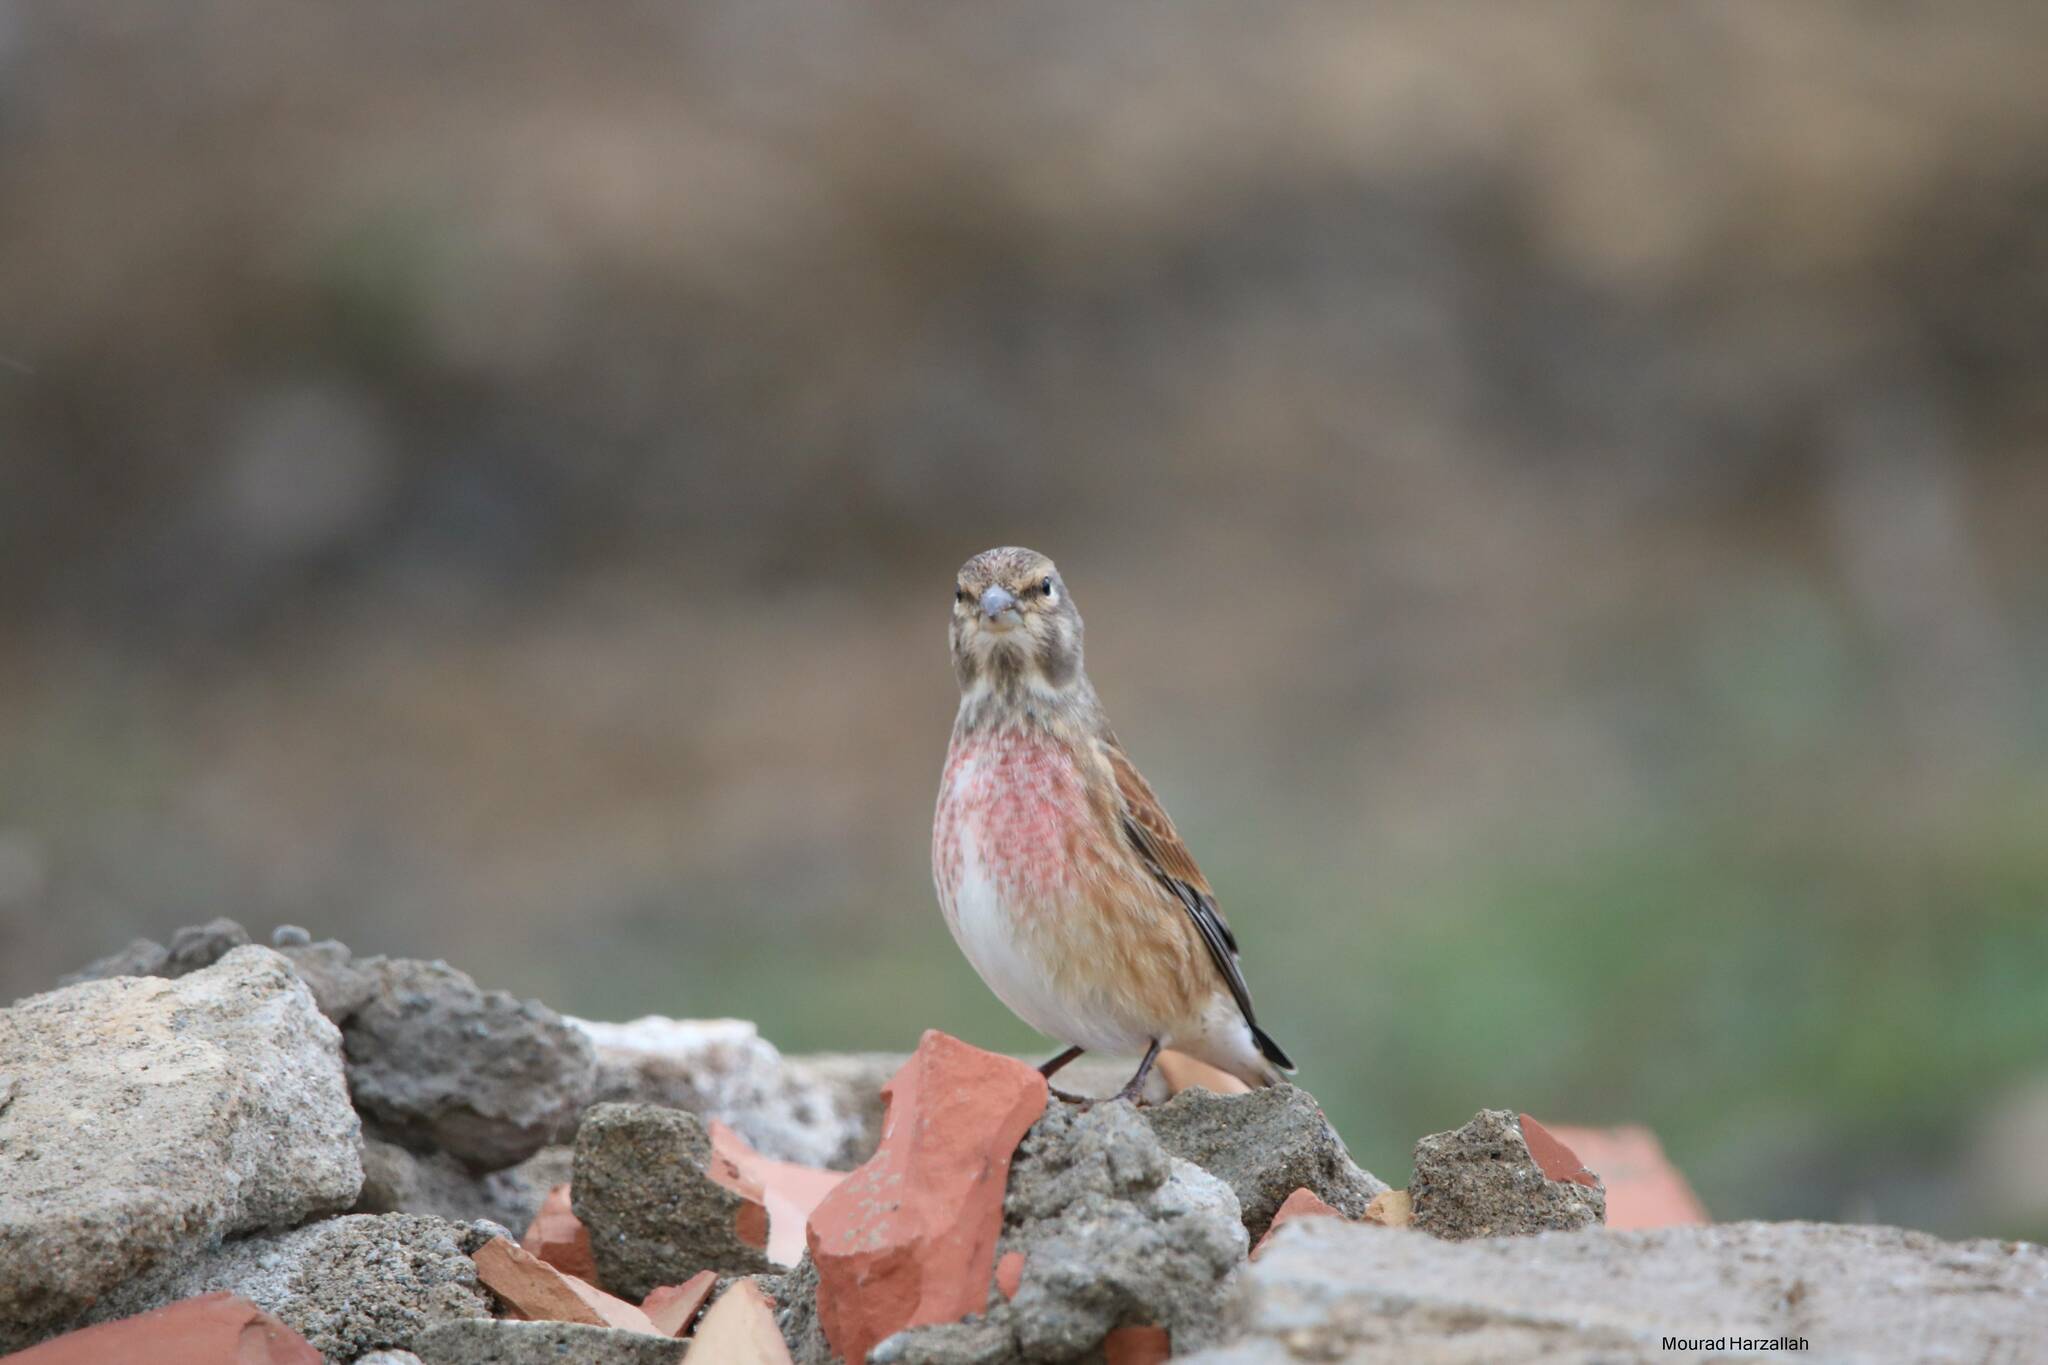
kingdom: Animalia
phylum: Chordata
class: Aves
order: Passeriformes
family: Fringillidae
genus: Linaria
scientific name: Linaria cannabina
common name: Common linnet
